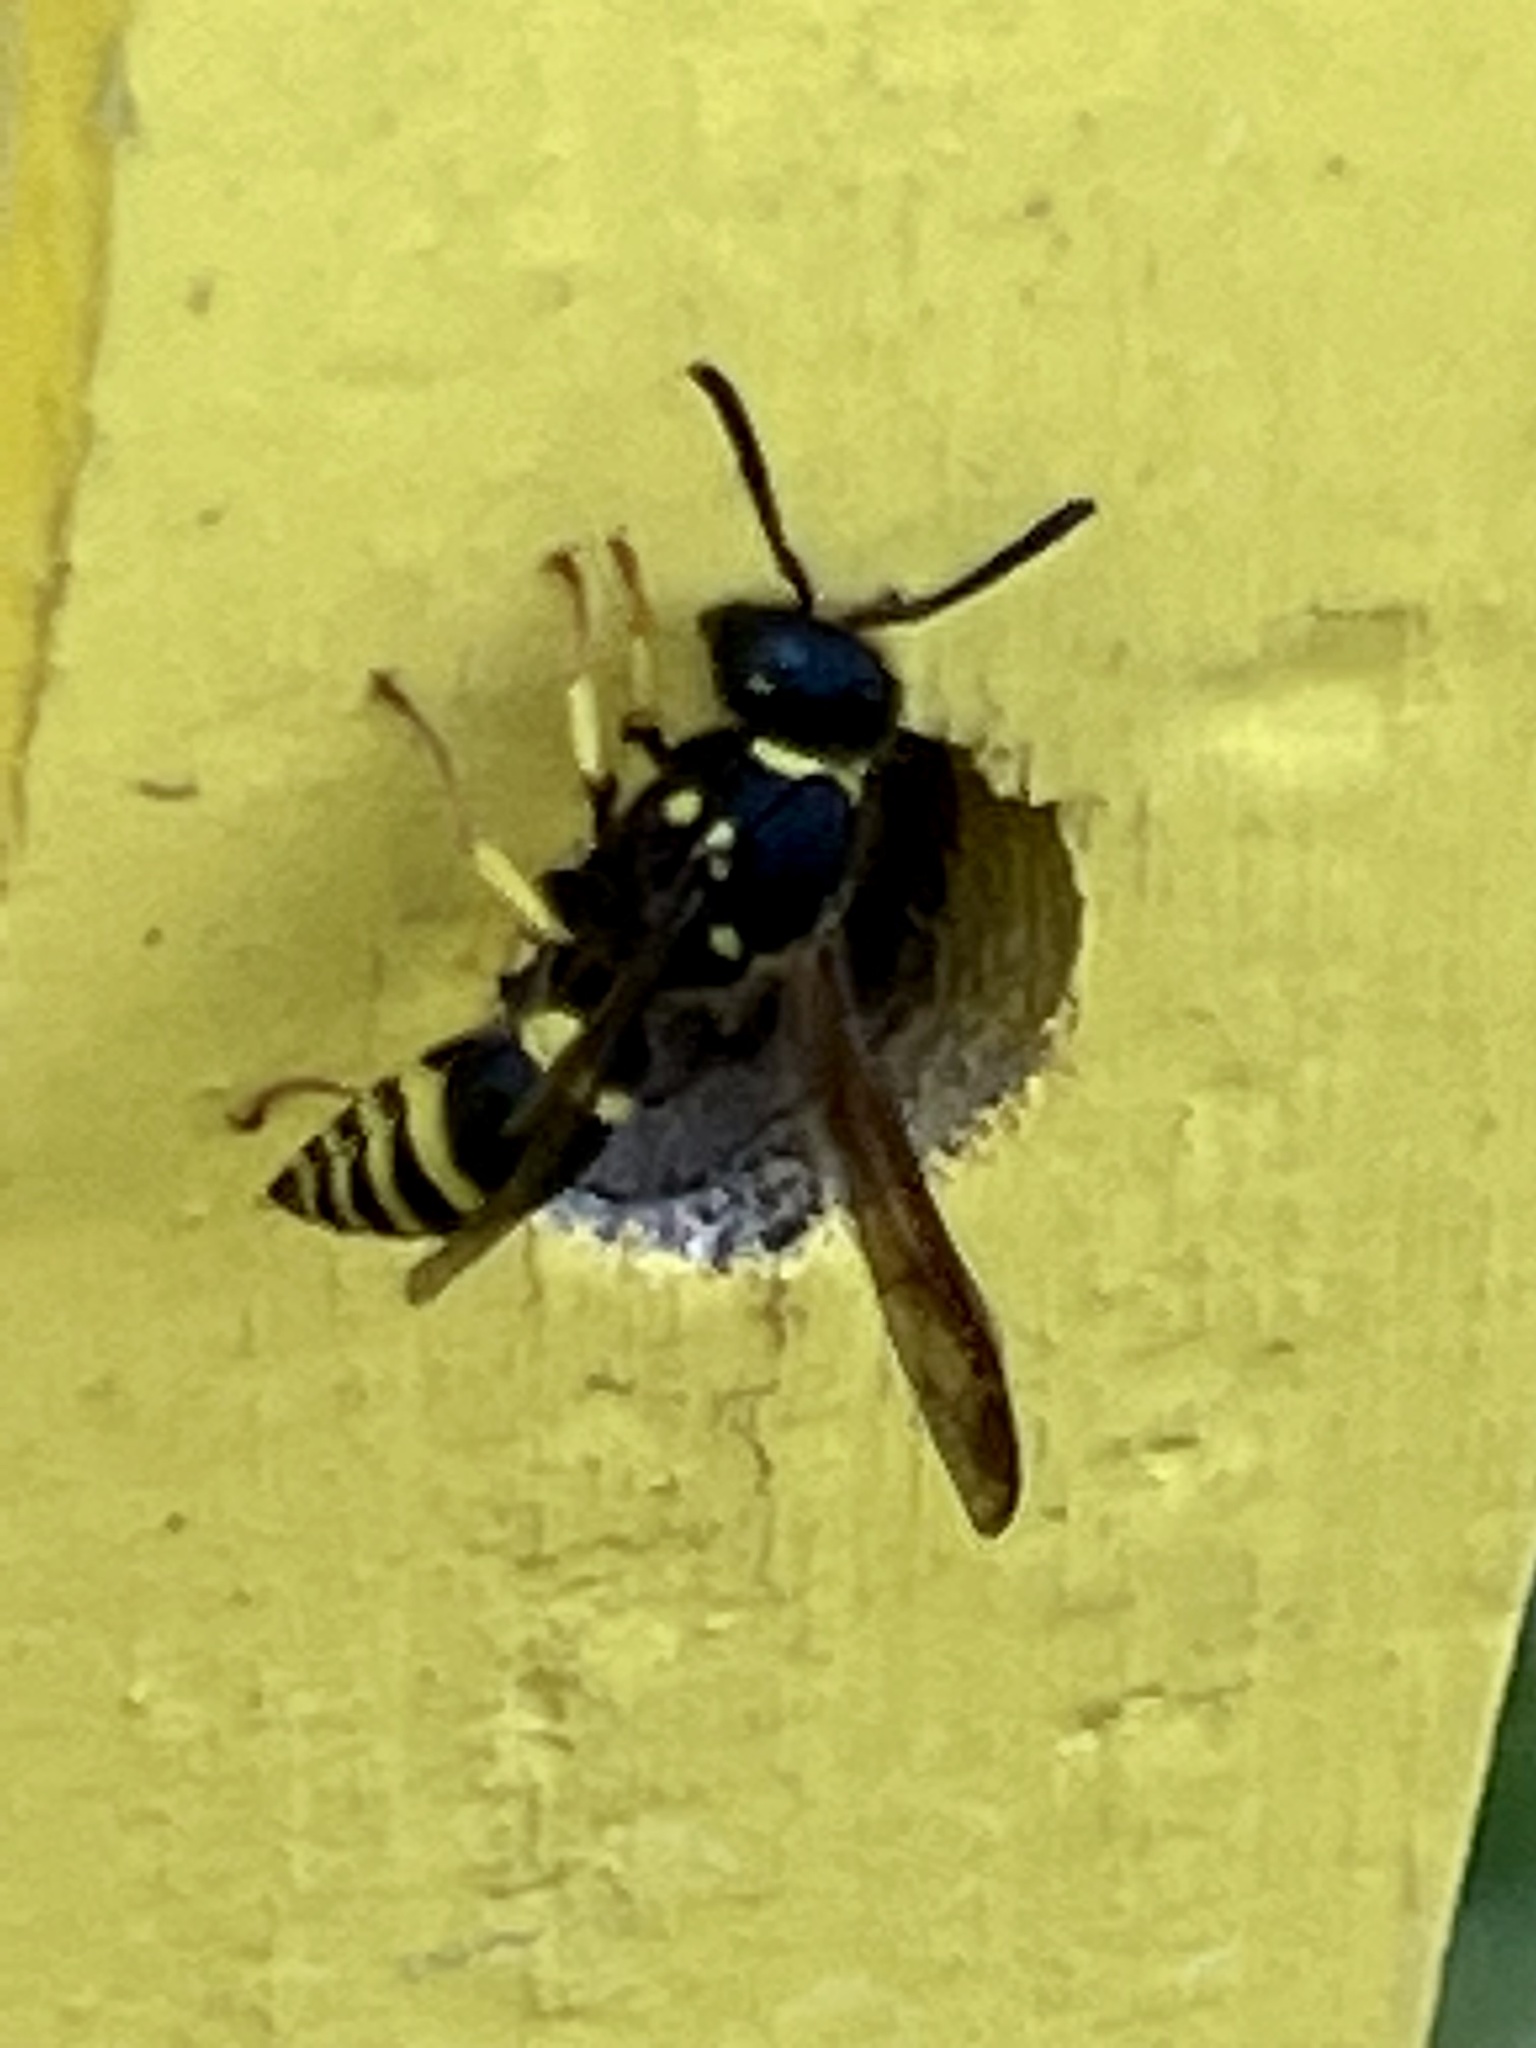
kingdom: Animalia
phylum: Arthropoda
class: Insecta
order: Hymenoptera
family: Vespidae
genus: Ancistrocerus
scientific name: Ancistrocerus
